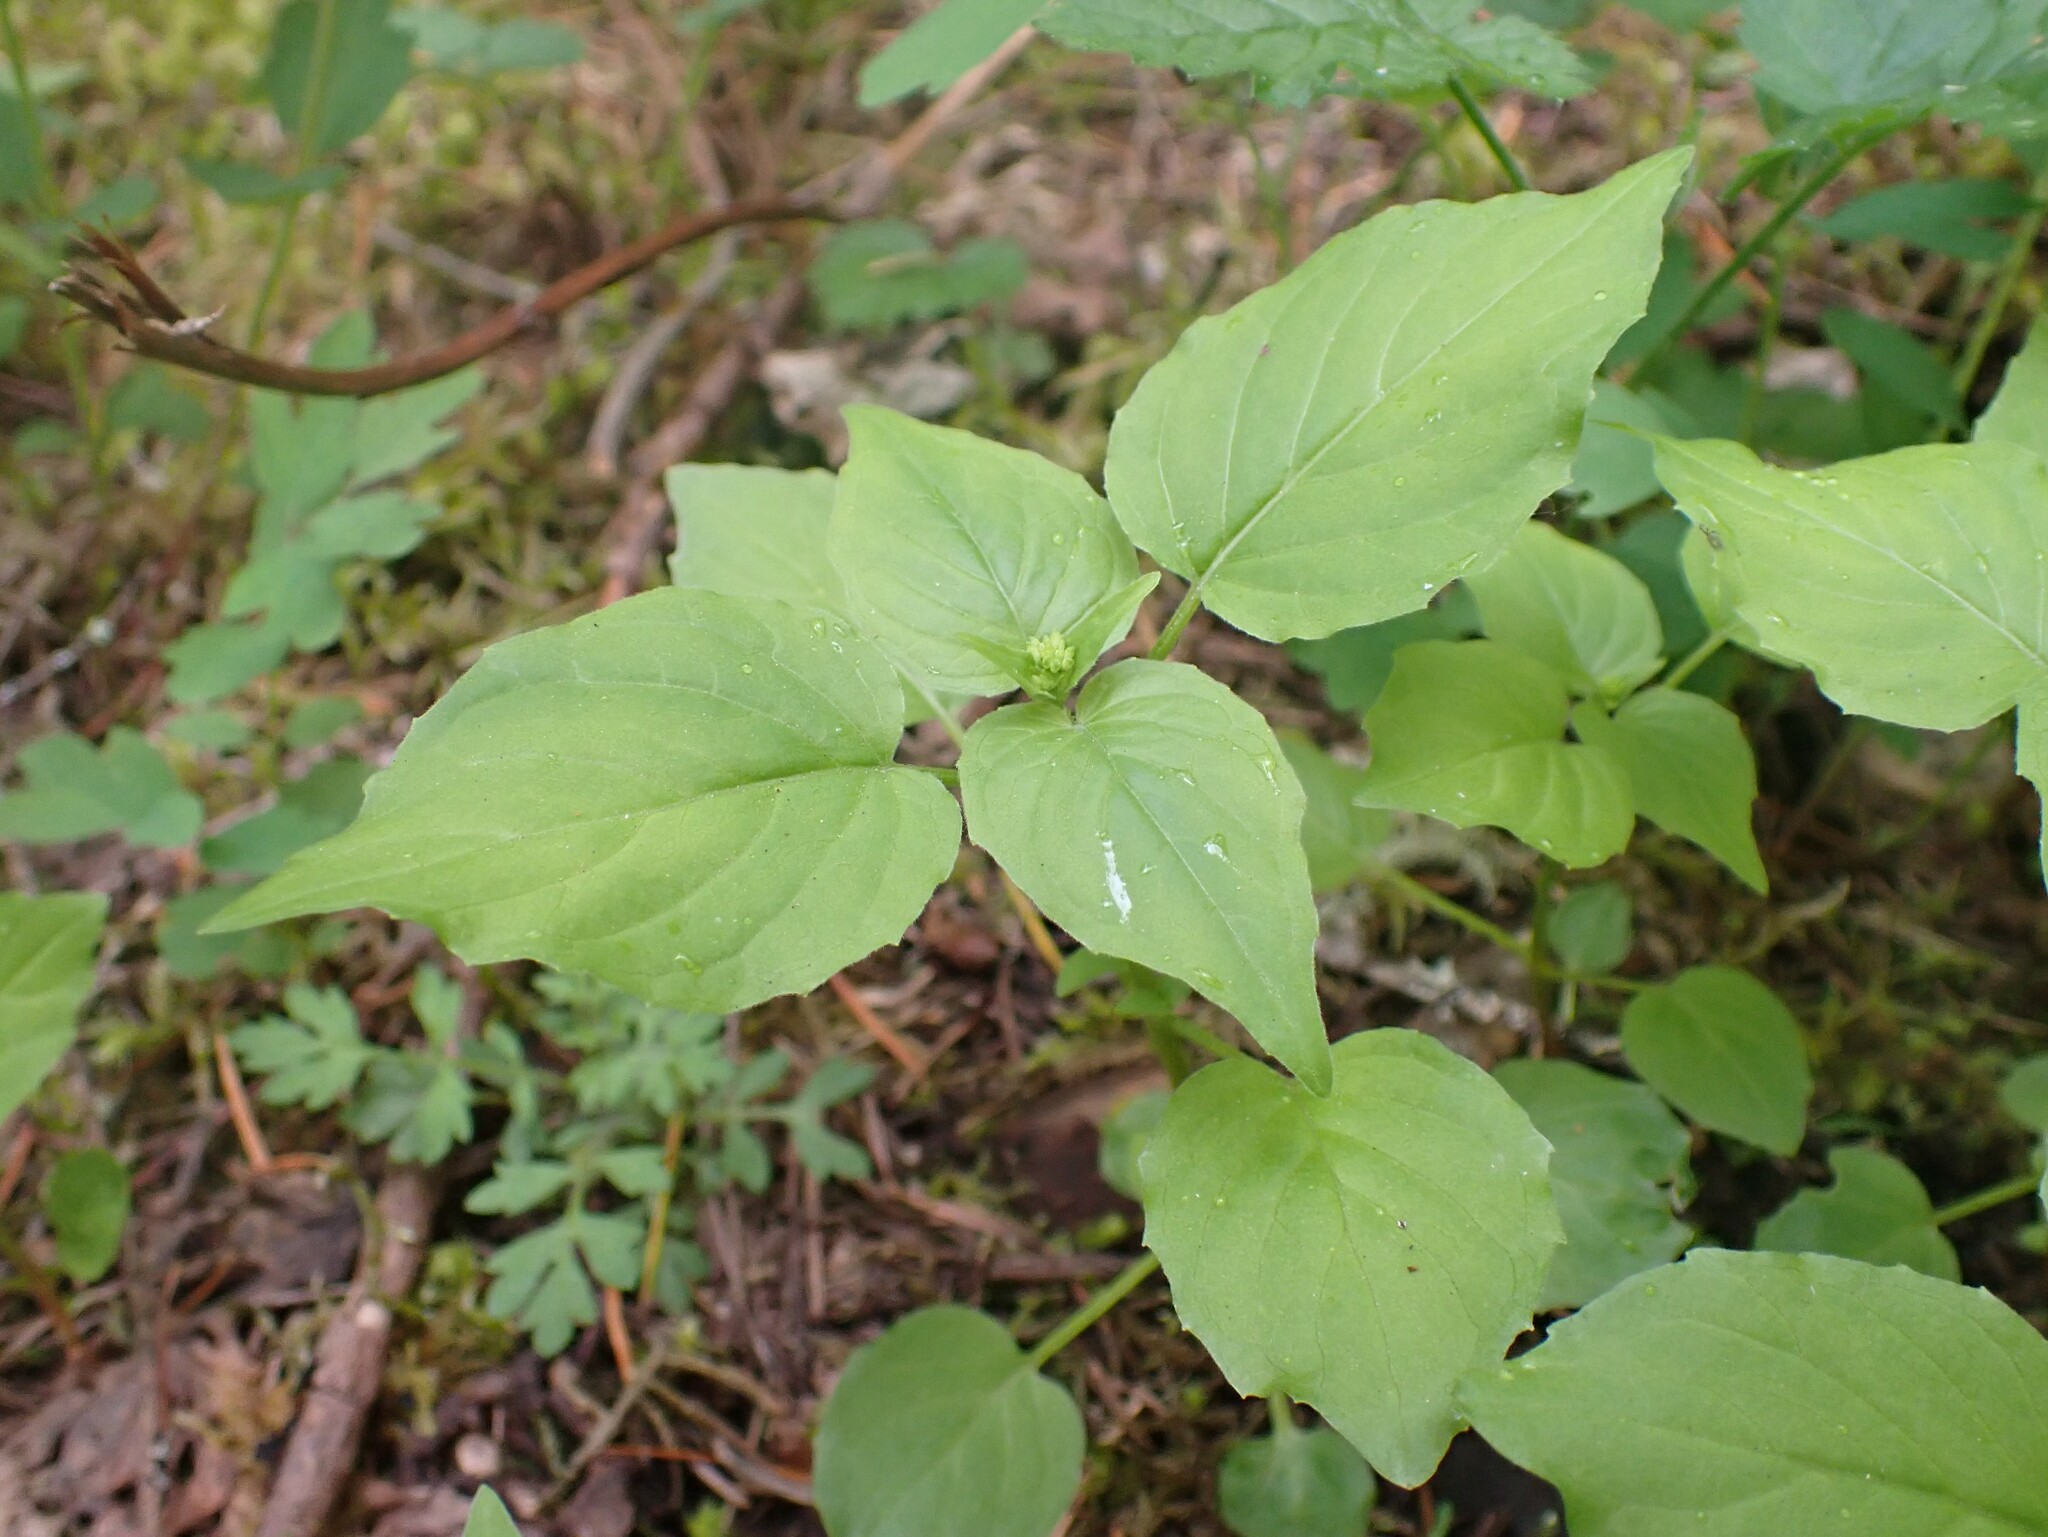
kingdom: Plantae
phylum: Tracheophyta
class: Magnoliopsida
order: Myrtales
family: Onagraceae
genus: Circaea
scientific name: Circaea alpina
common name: Alpine enchanter's-nightshade
